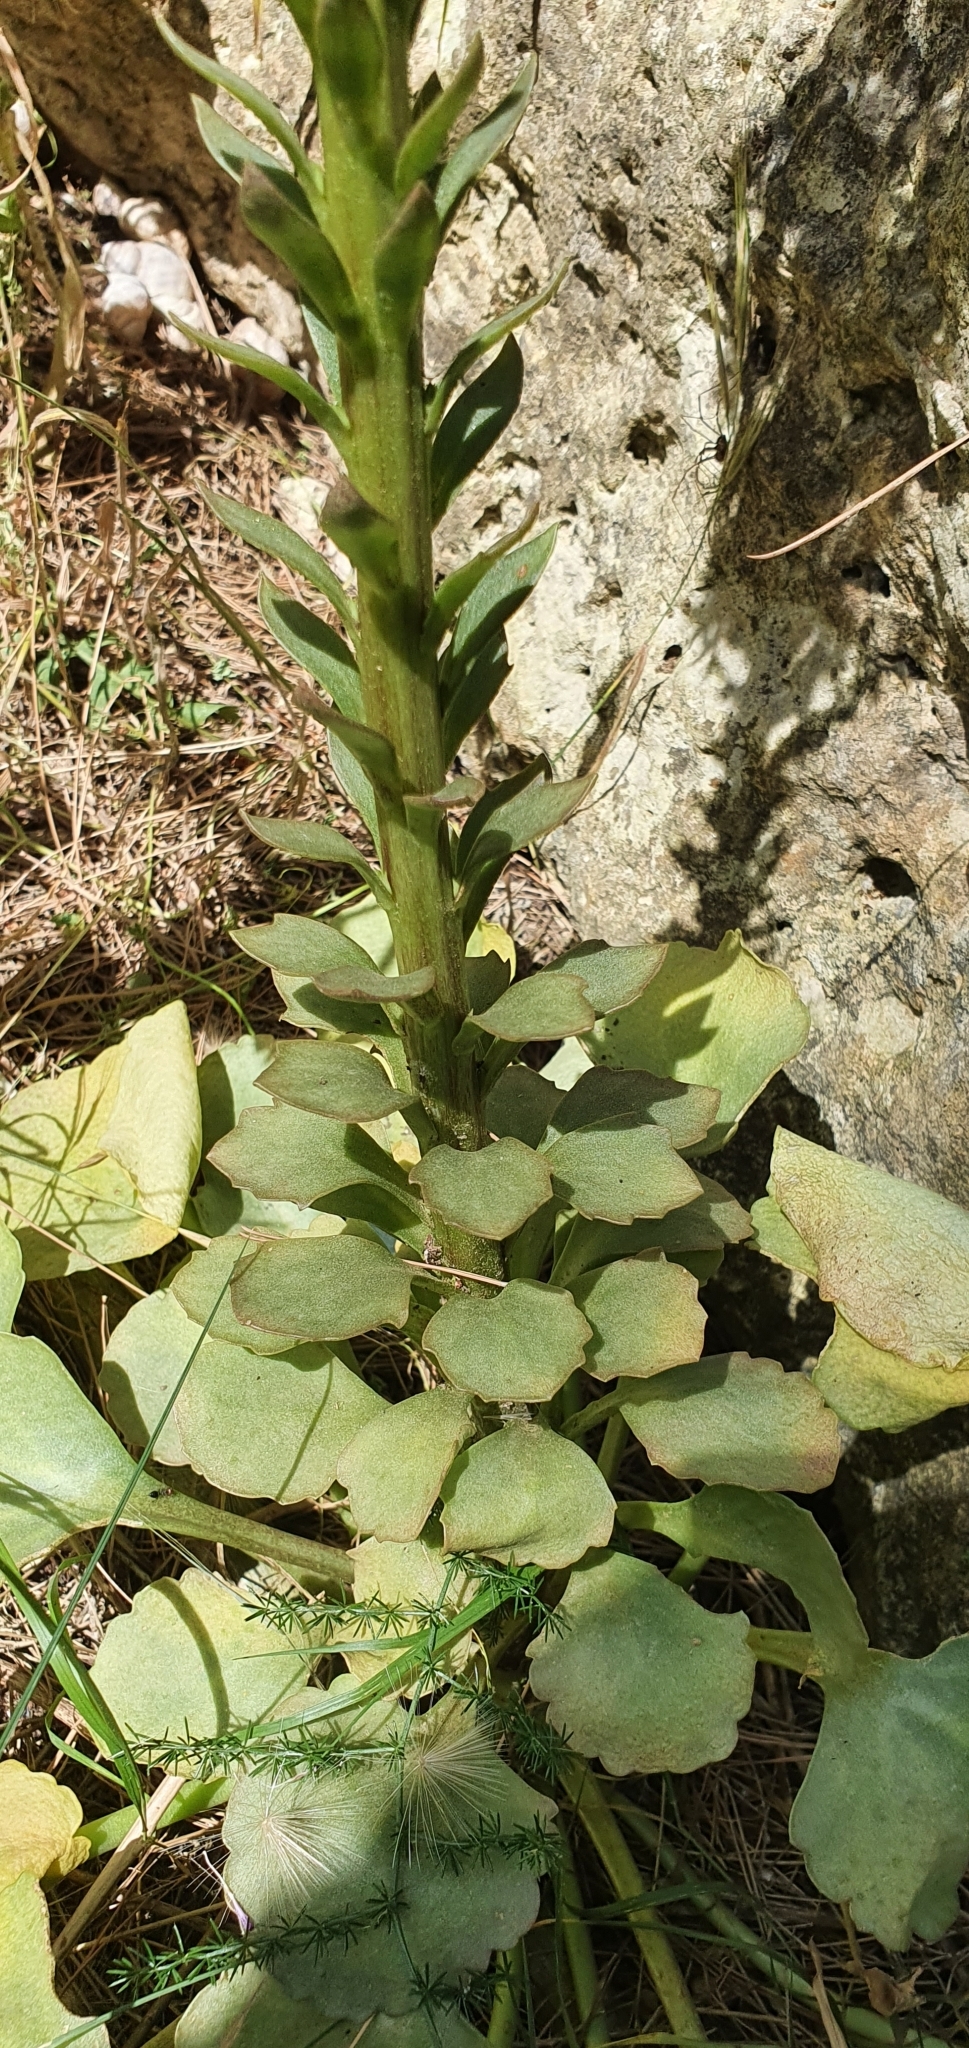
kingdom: Plantae
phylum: Tracheophyta
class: Magnoliopsida
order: Saxifragales
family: Crassulaceae
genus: Umbilicus
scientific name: Umbilicus horizontalis
